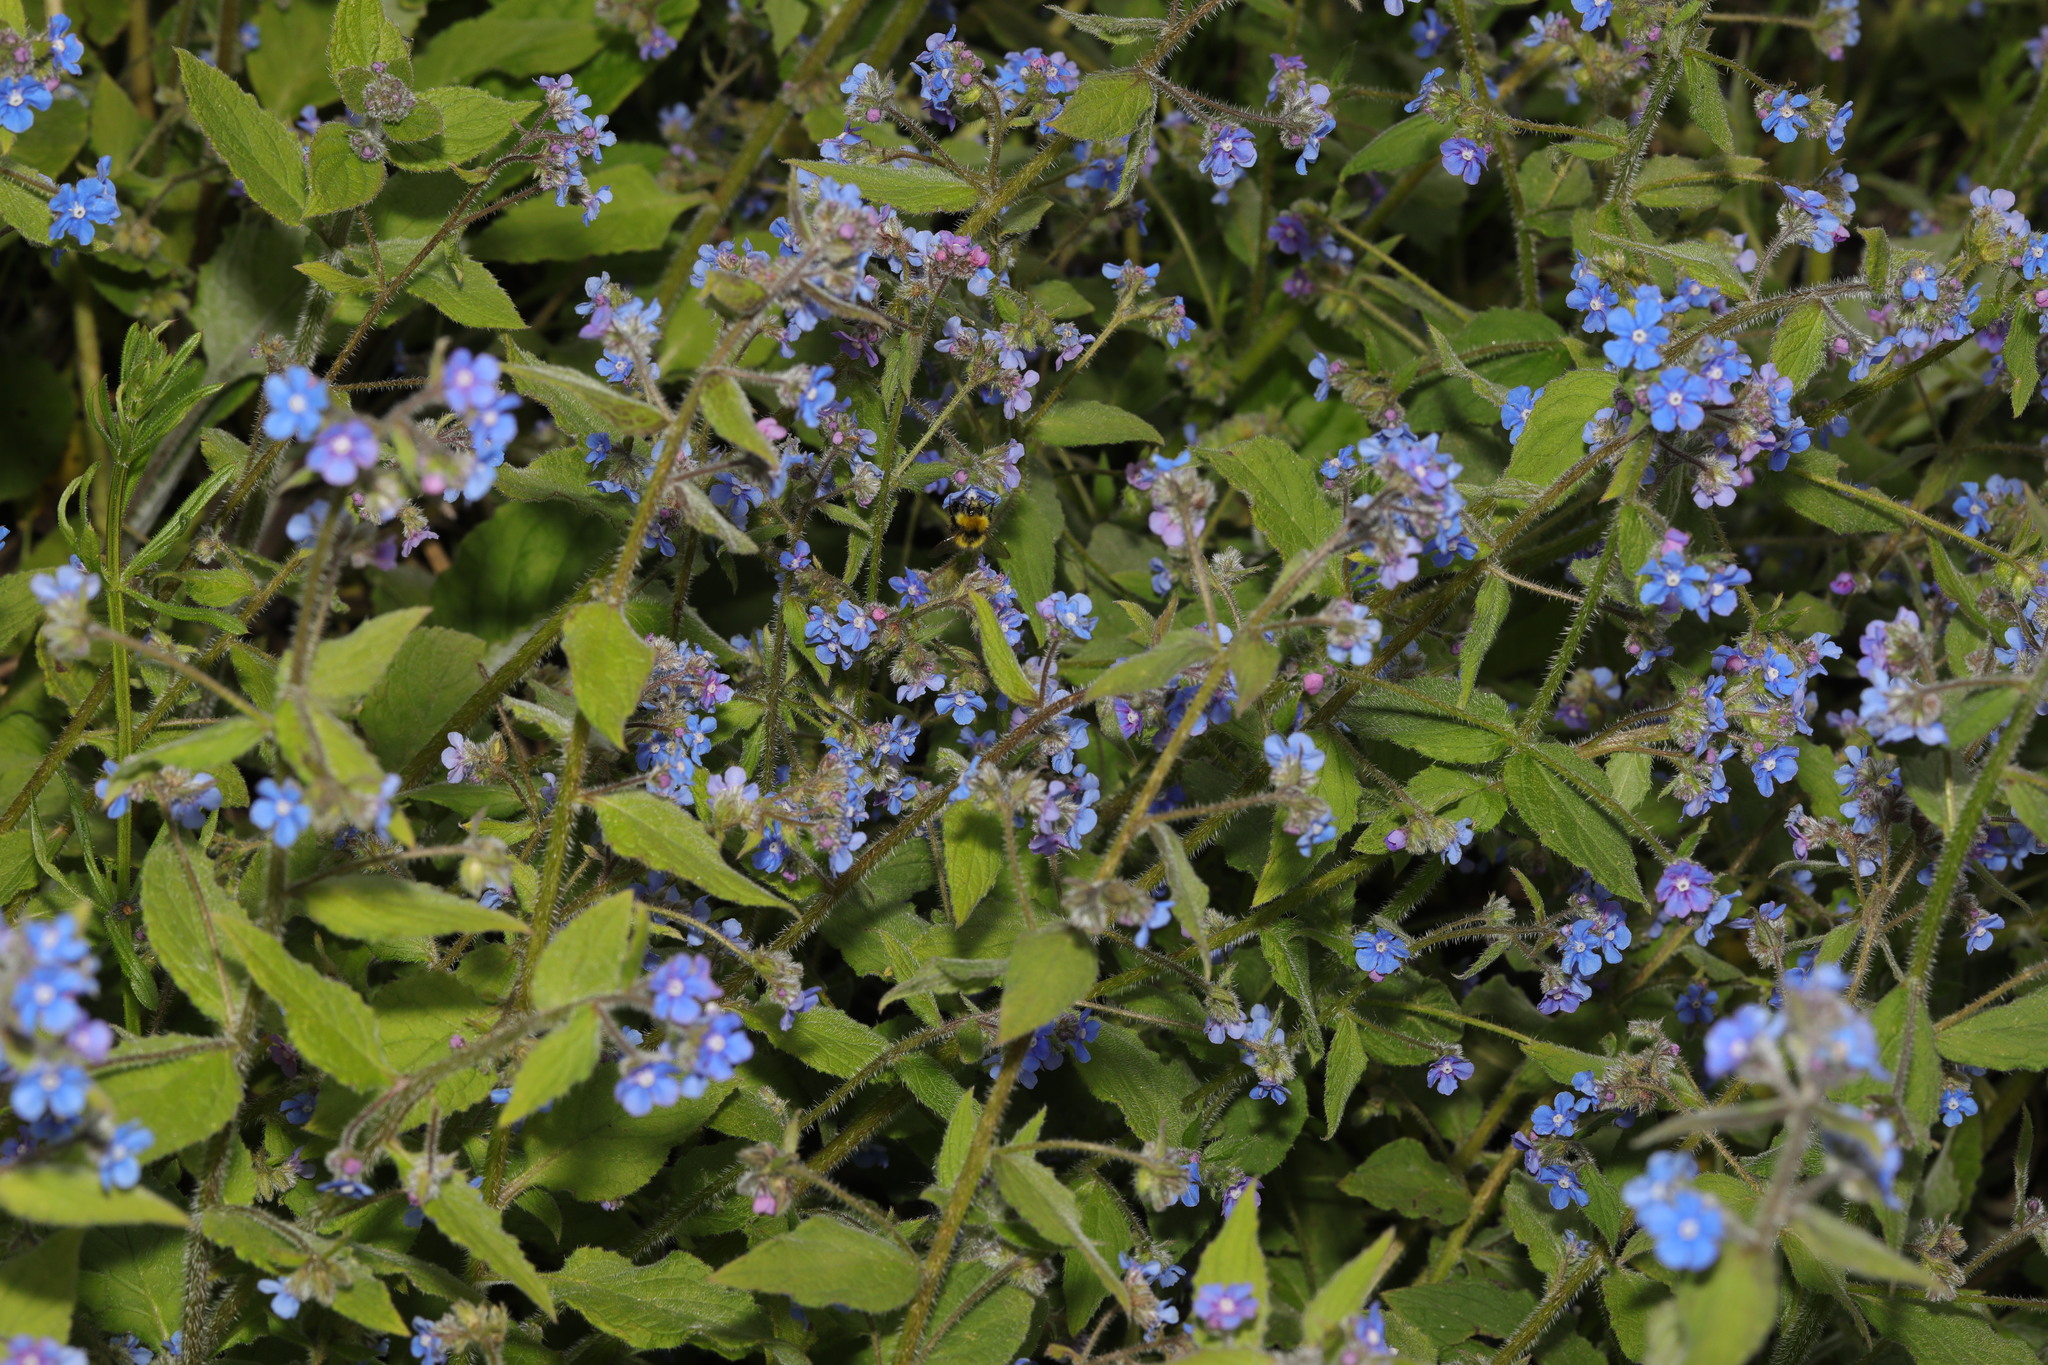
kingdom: Plantae
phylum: Tracheophyta
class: Magnoliopsida
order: Boraginales
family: Boraginaceae
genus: Pentaglottis
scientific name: Pentaglottis sempervirens
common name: Green alkanet
